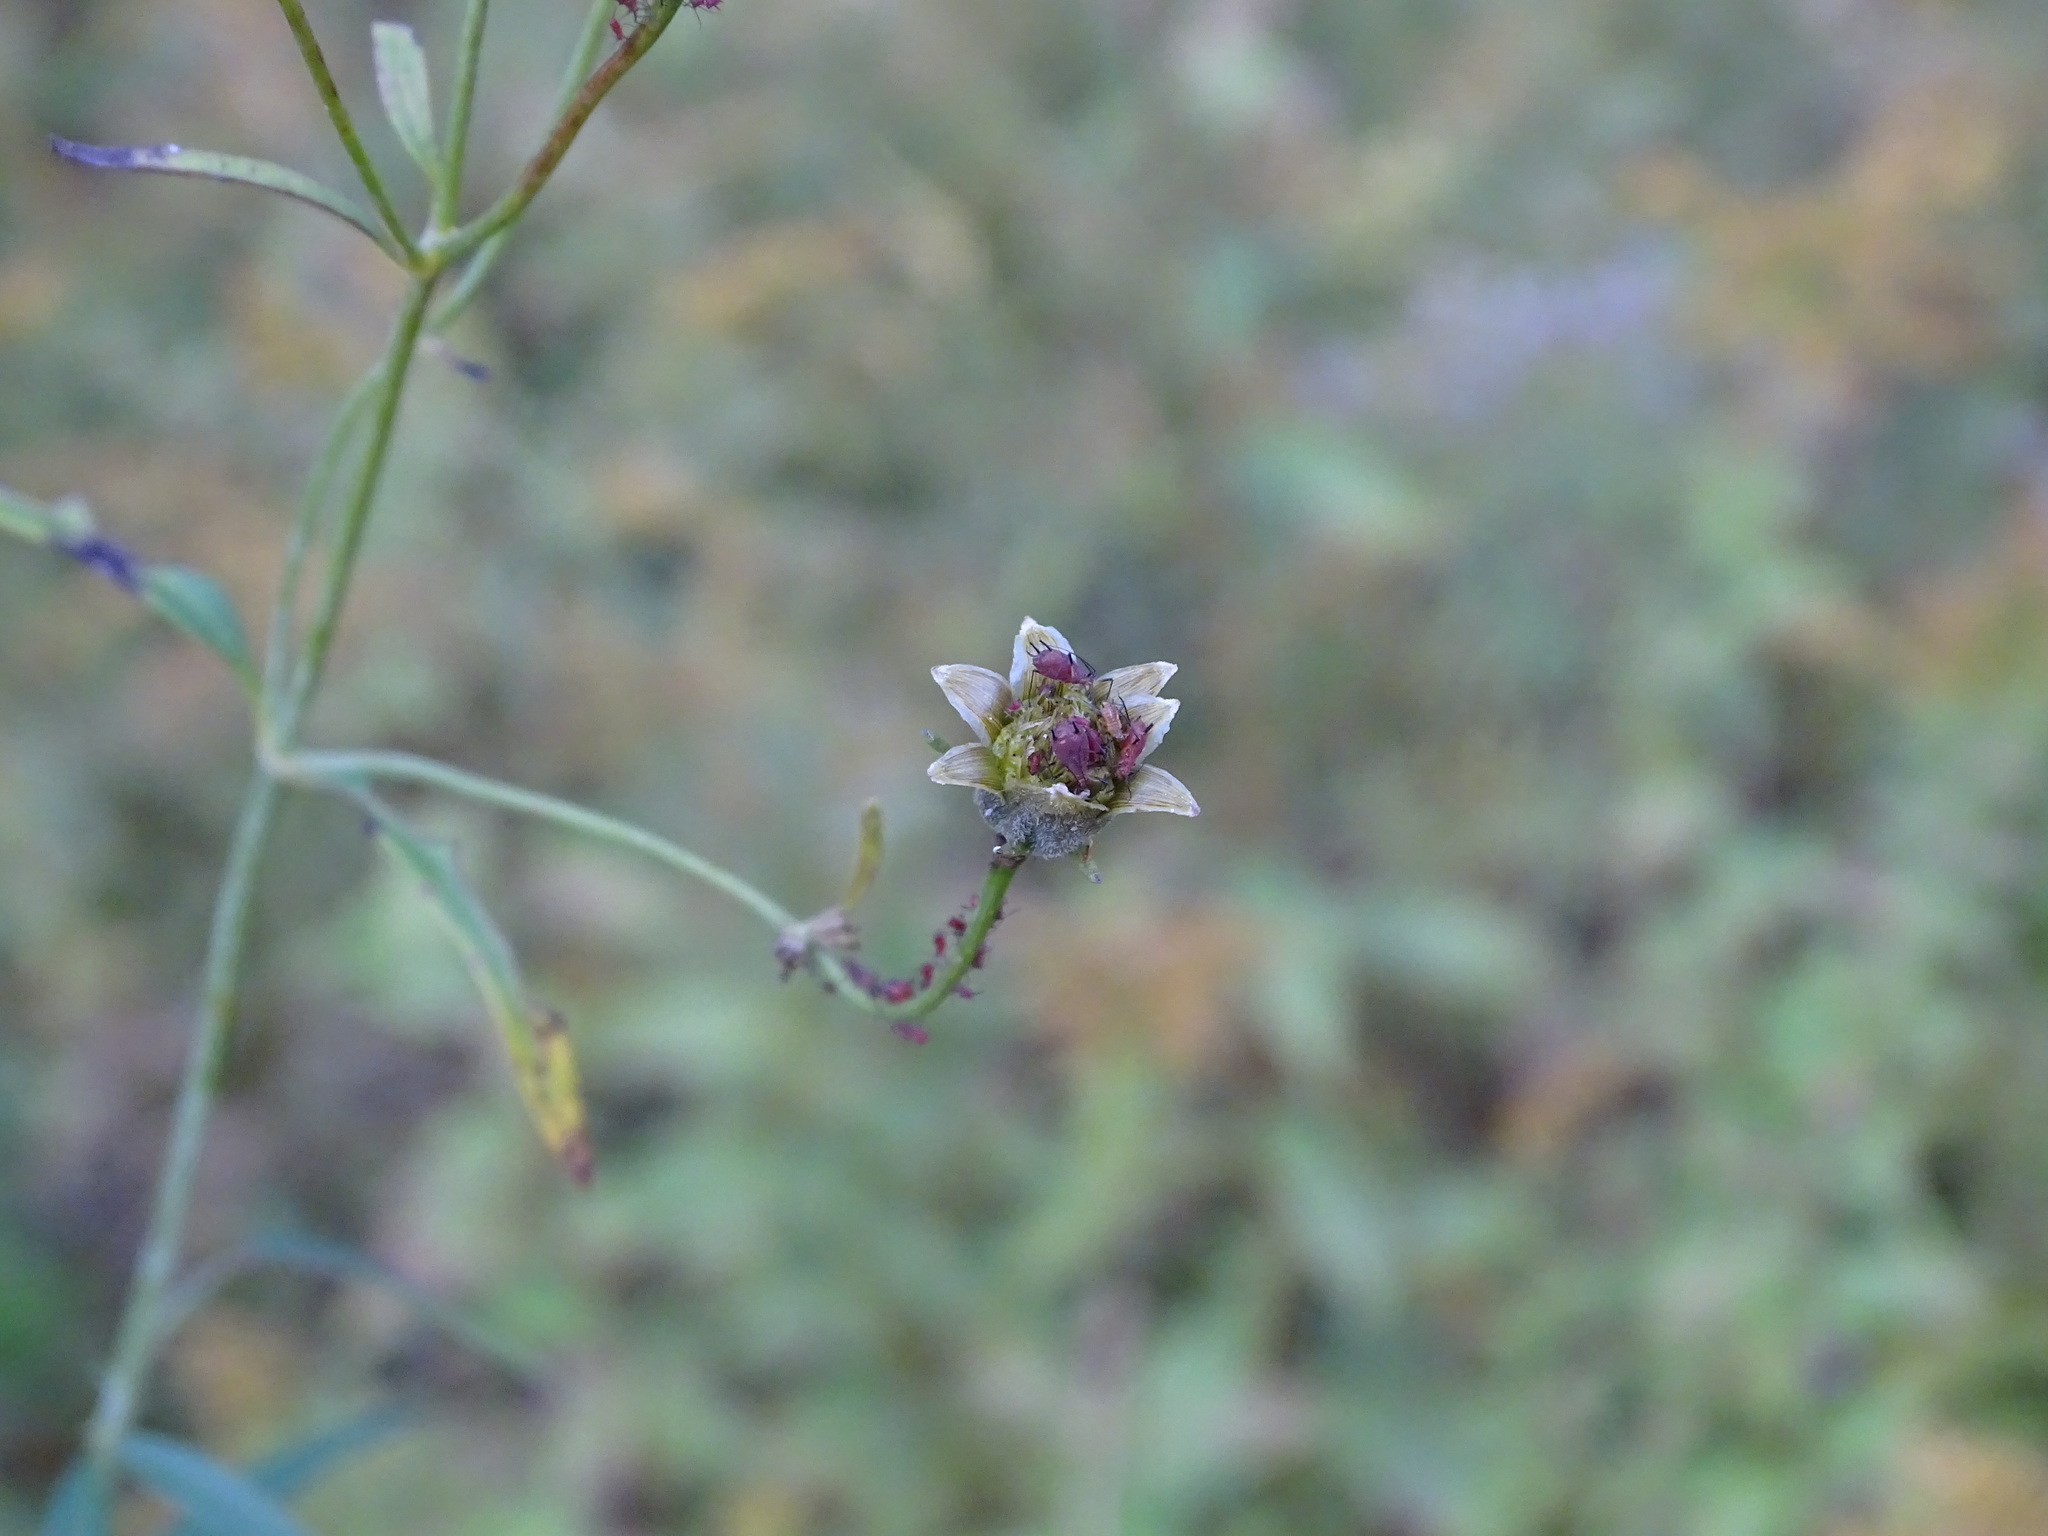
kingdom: Plantae
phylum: Tracheophyta
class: Magnoliopsida
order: Asterales
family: Asteraceae
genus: Coreopsis
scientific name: Coreopsis tripteris
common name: Tall coreopsis
